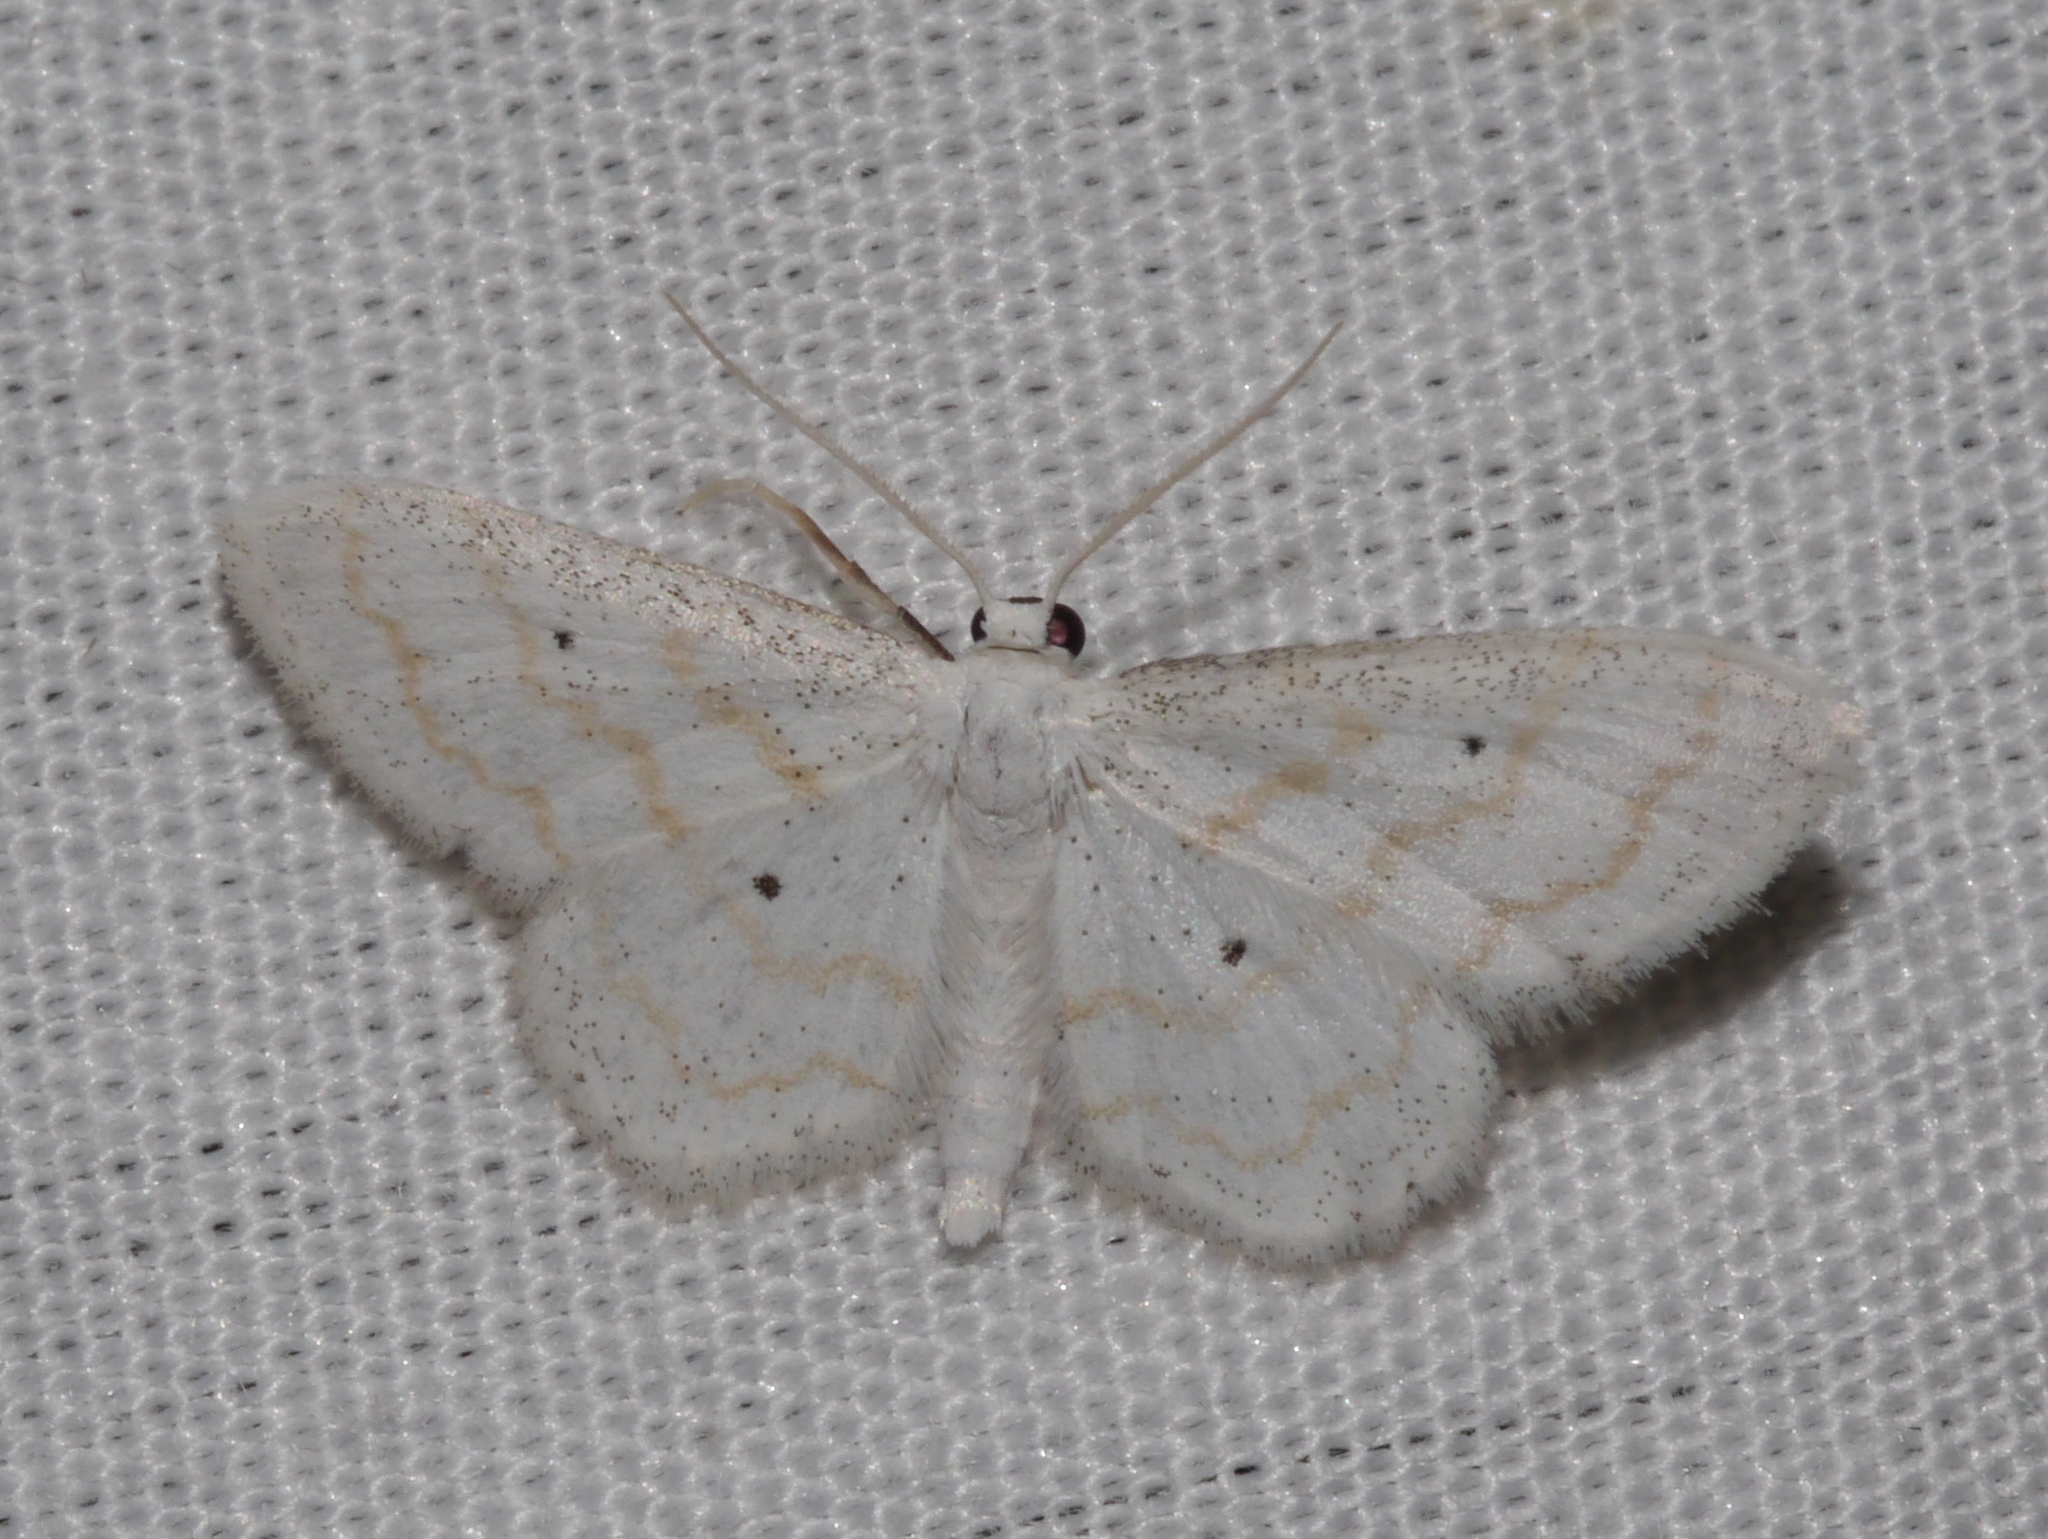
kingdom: Animalia
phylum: Arthropoda
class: Insecta
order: Lepidoptera
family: Geometridae
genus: Lobocleta
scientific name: Lobocleta peralbata
